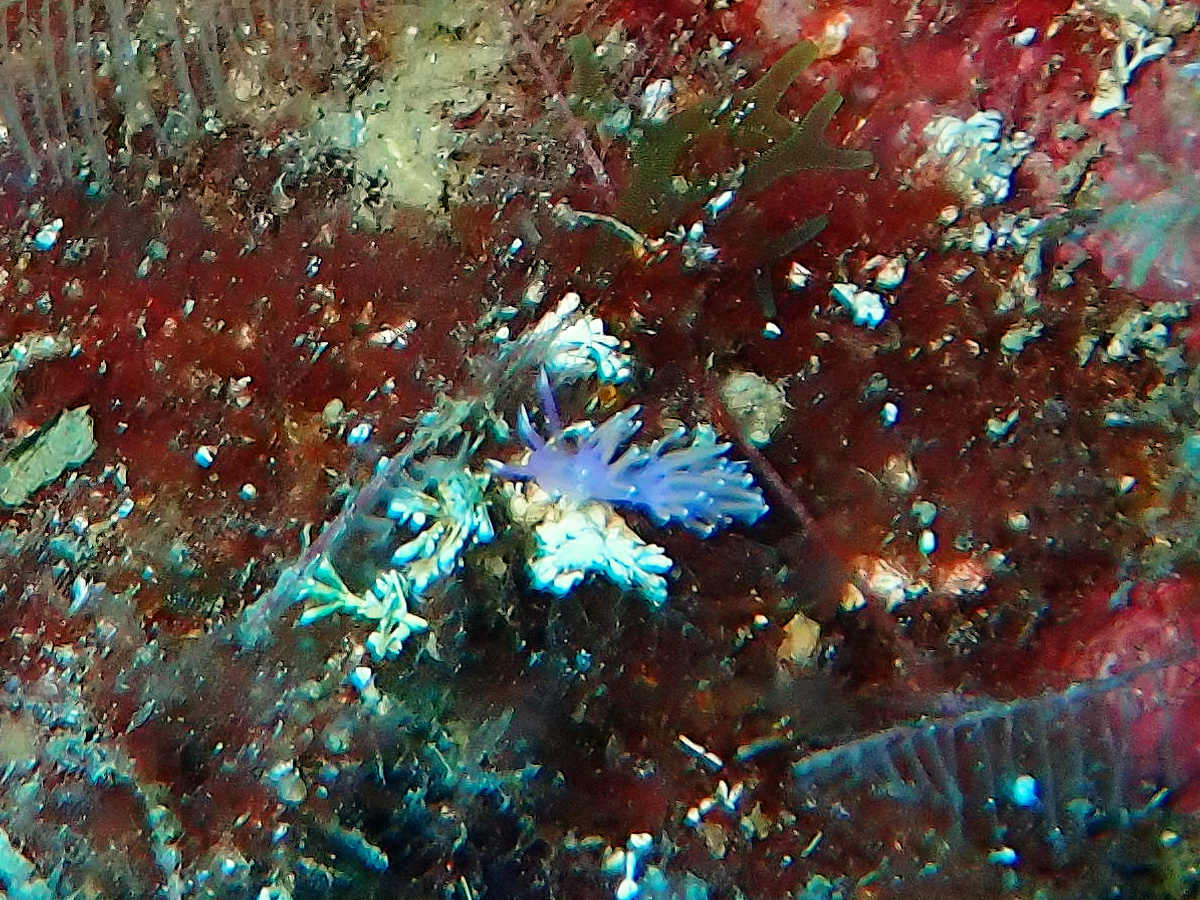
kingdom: Animalia
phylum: Mollusca
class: Gastropoda
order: Nudibranchia
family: Flabellinidae
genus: Edmundsella
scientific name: Edmundsella pedata
